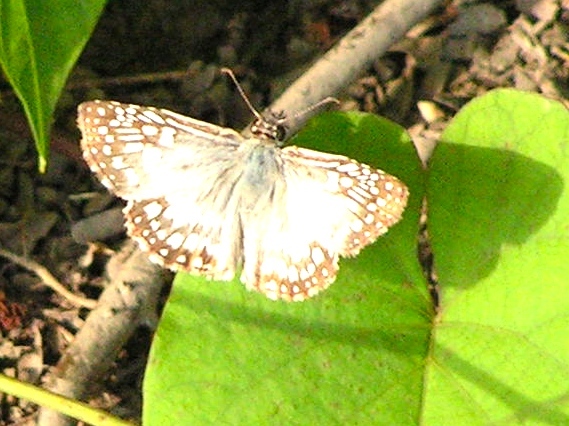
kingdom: Animalia
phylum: Arthropoda
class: Insecta
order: Lepidoptera
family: Hesperiidae
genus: Burnsius
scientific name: Burnsius
